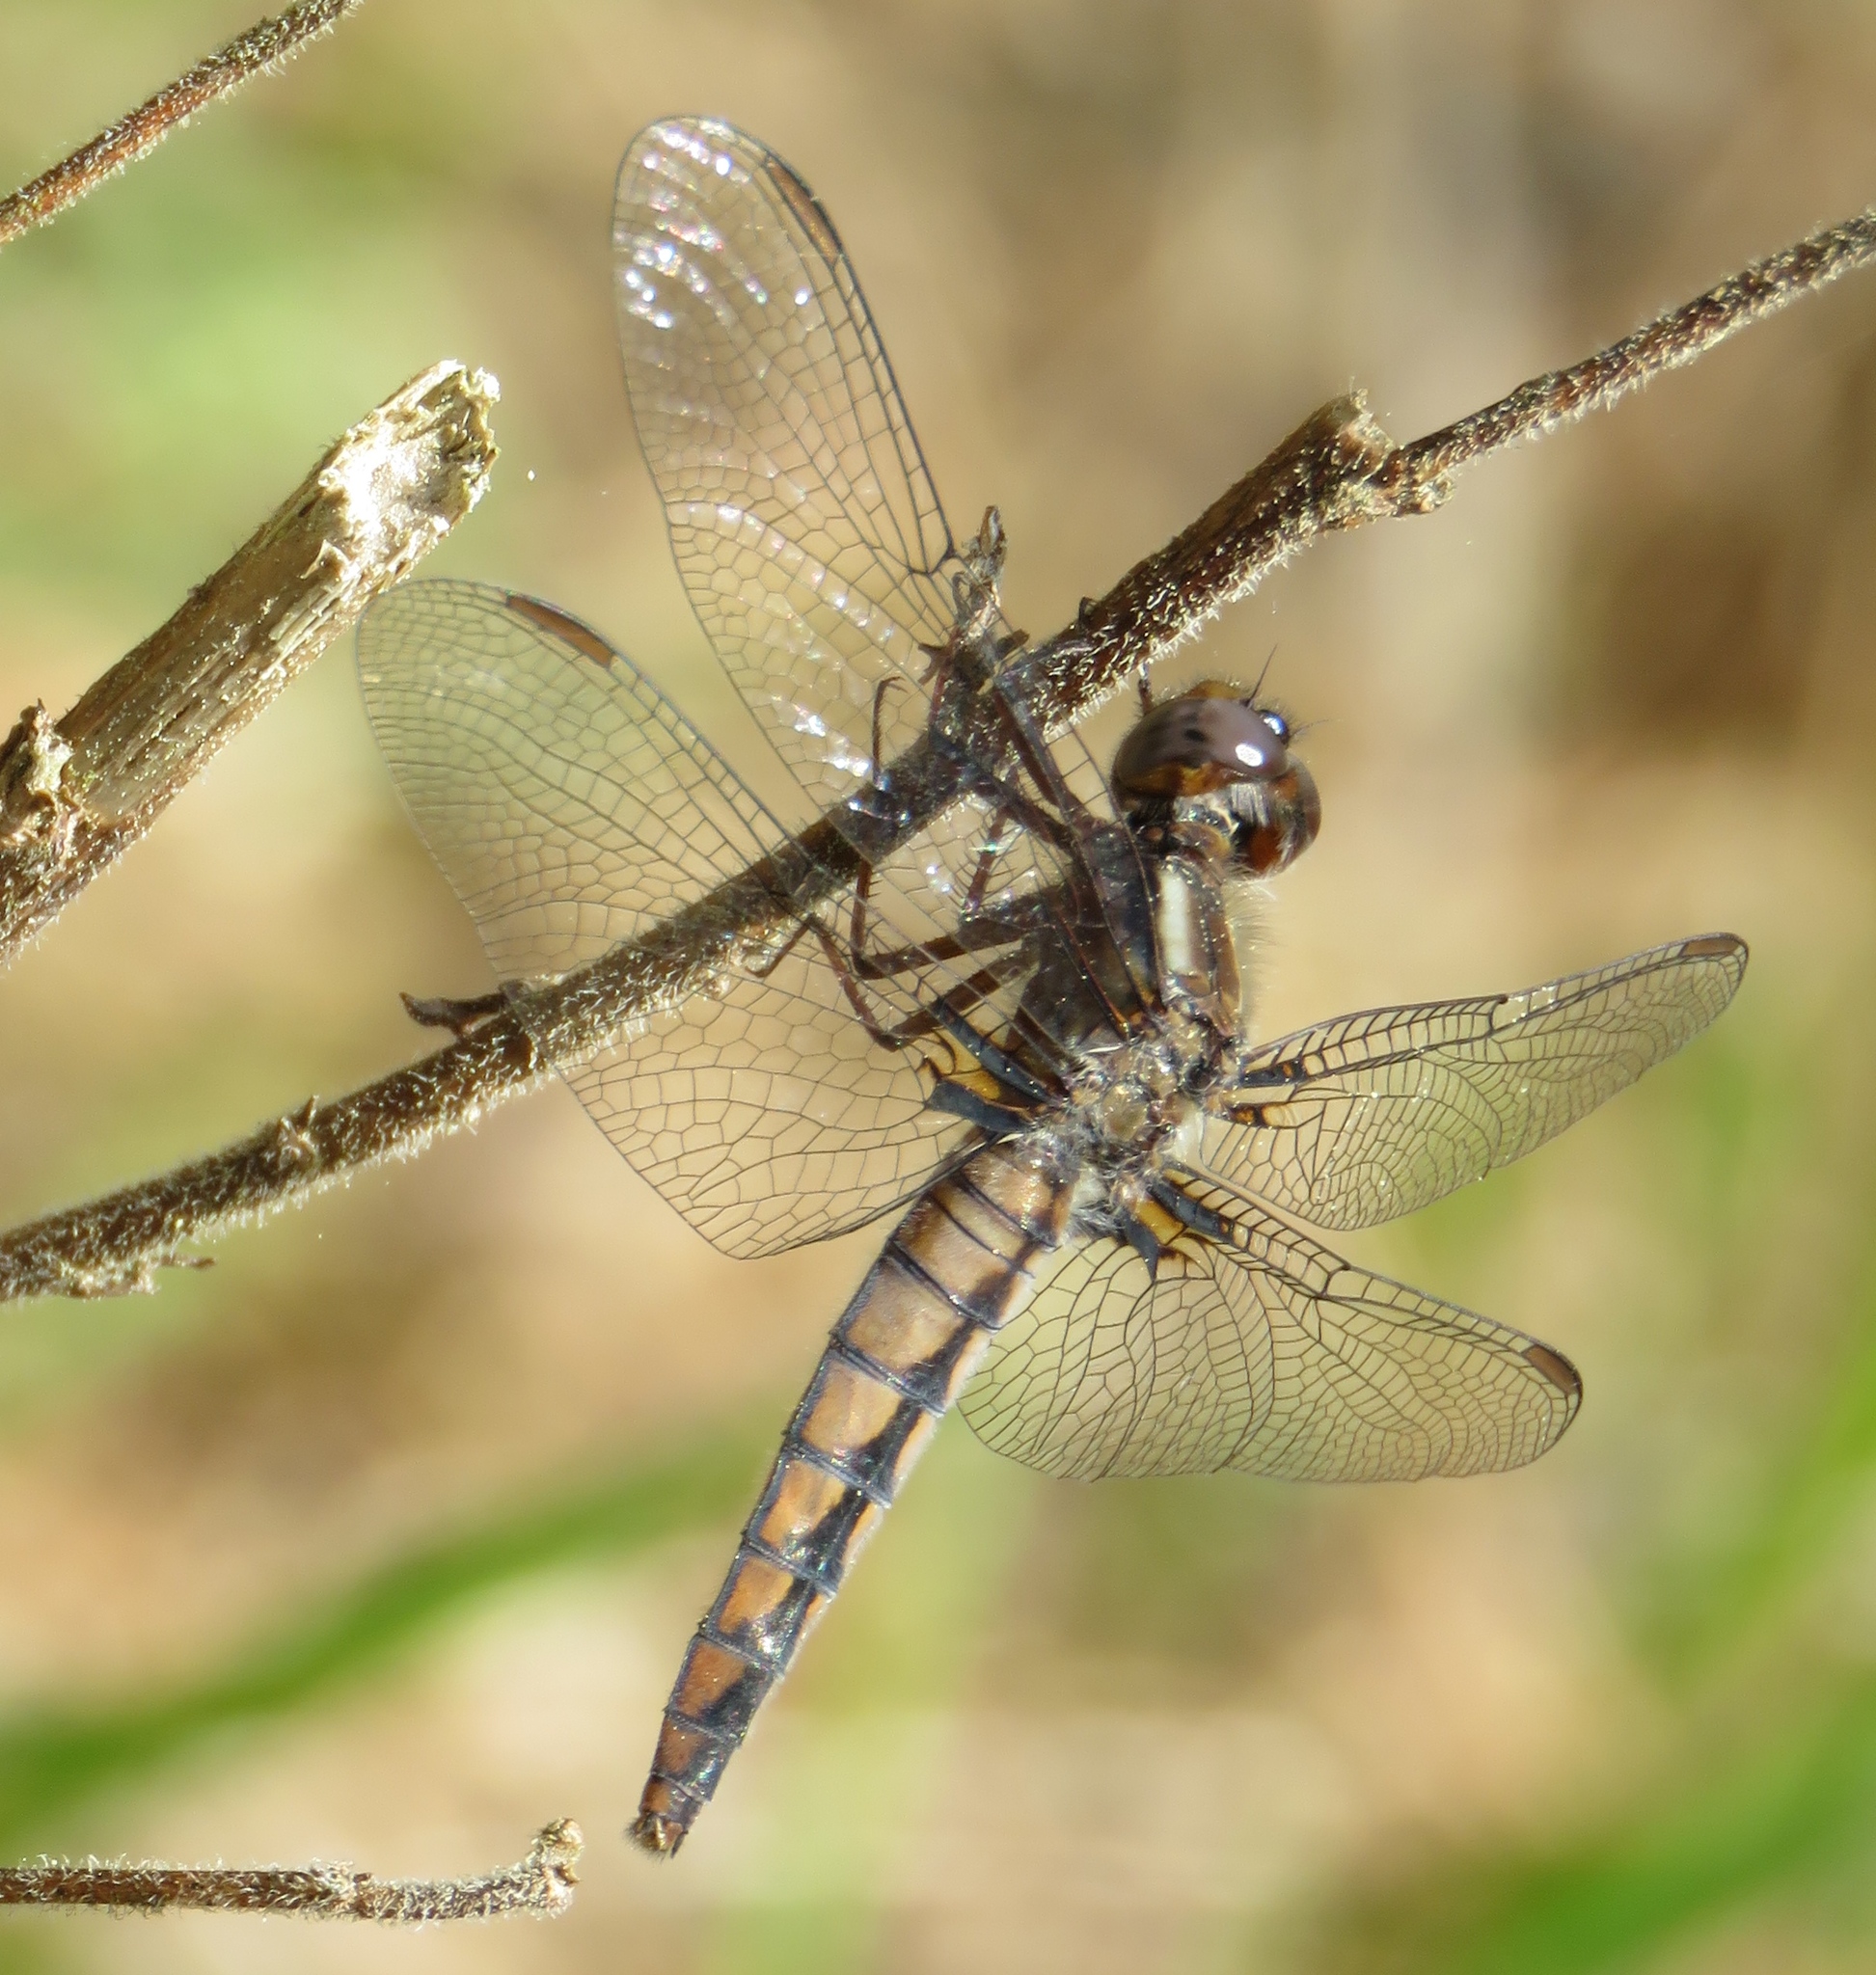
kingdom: Animalia
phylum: Arthropoda
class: Insecta
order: Odonata
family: Libellulidae
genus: Ladona
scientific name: Ladona deplanata
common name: Blue corporal
